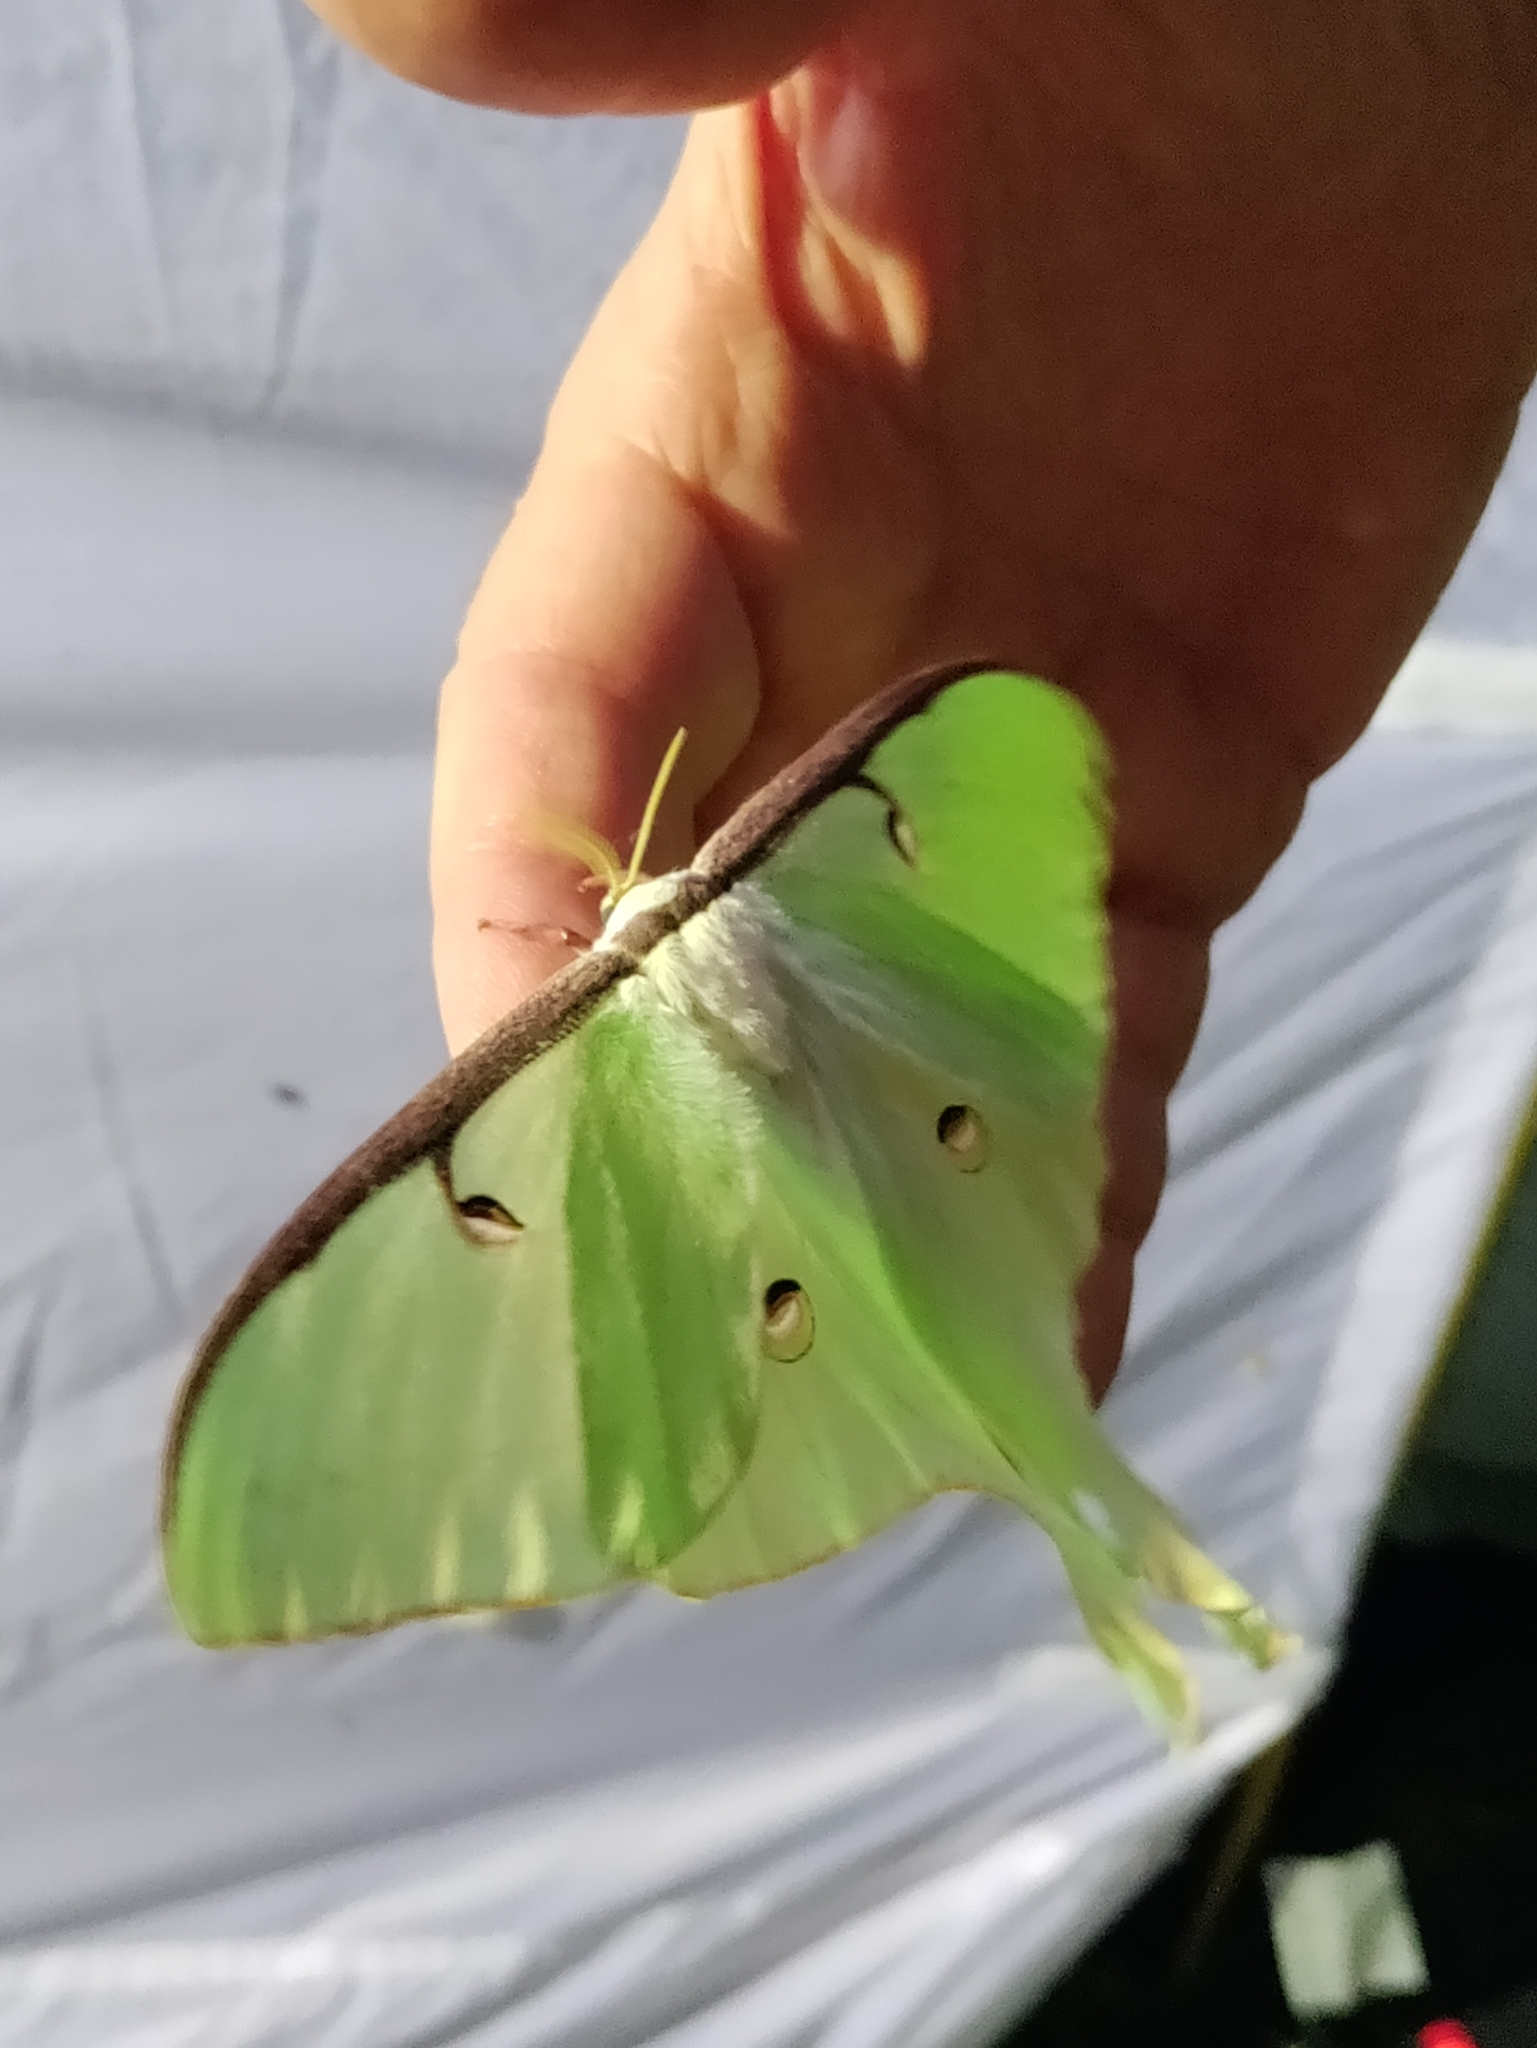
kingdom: Animalia
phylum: Arthropoda
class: Insecta
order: Lepidoptera
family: Saturniidae
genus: Actias
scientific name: Actias luna
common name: Luna moth
